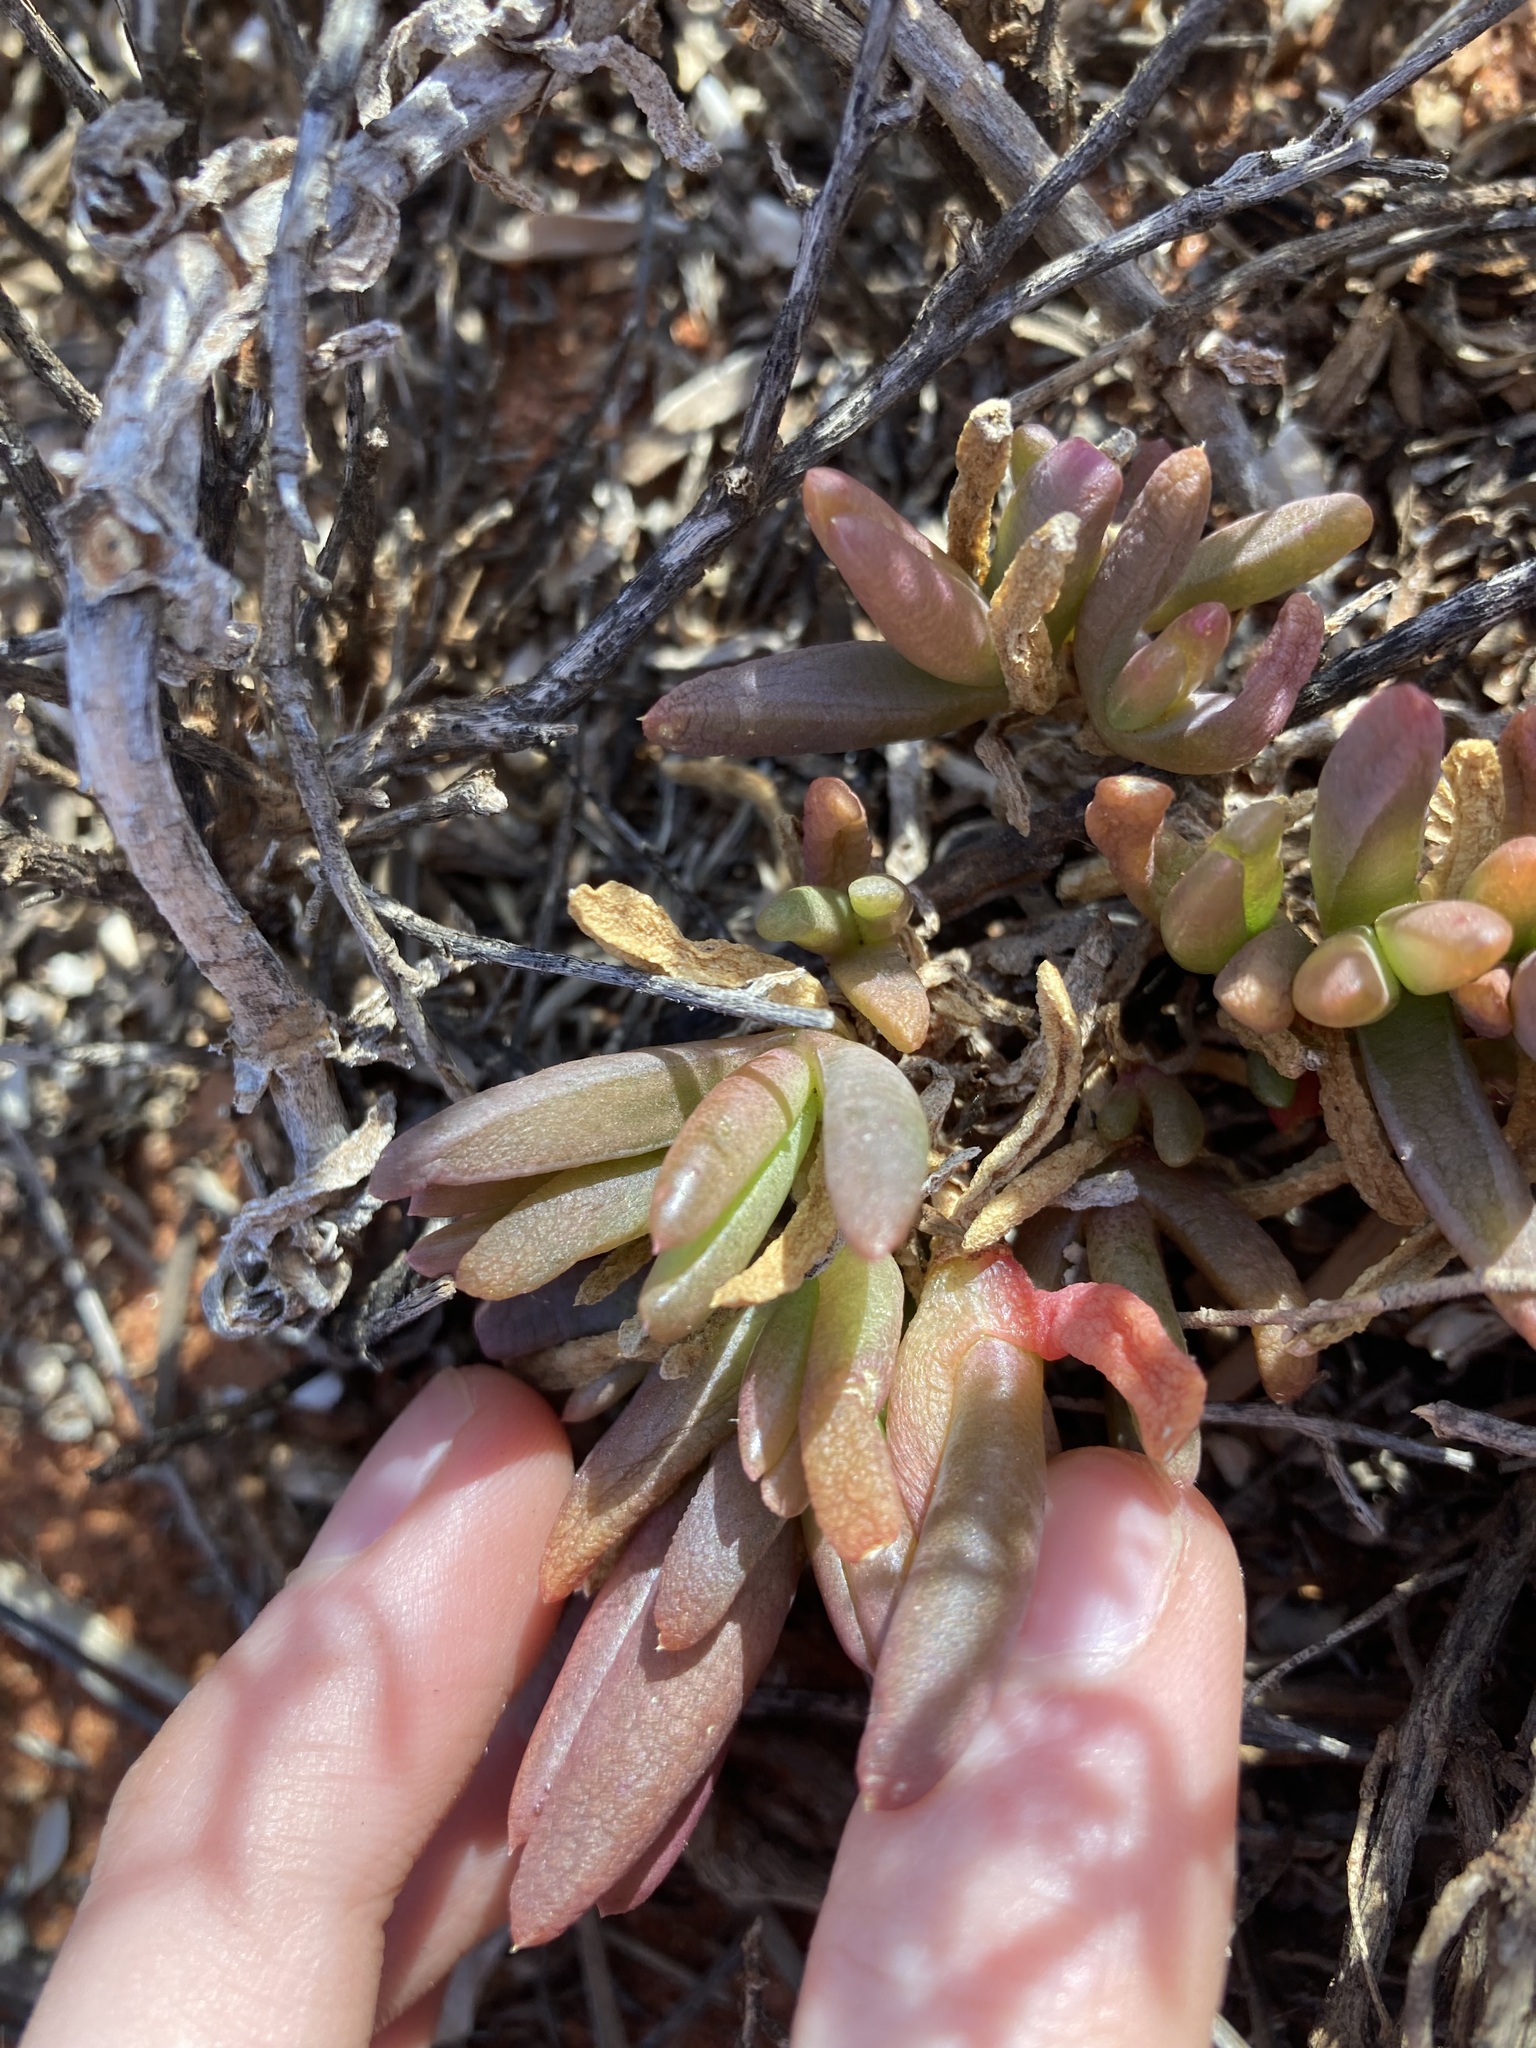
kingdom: Plantae
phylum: Tracheophyta
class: Magnoliopsida
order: Caryophyllales
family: Aizoaceae
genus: Disphyma
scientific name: Disphyma clavellatum
